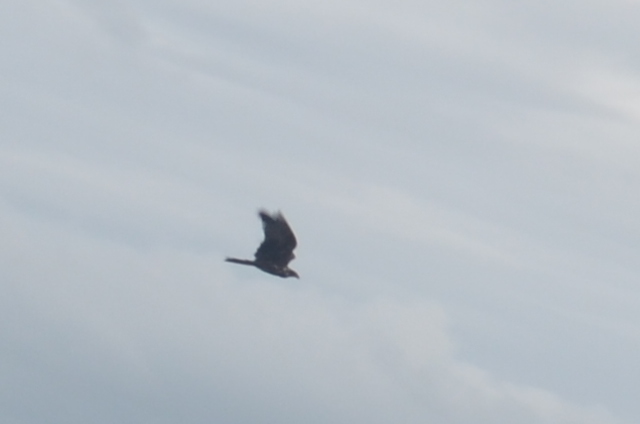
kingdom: Animalia
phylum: Chordata
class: Aves
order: Accipitriformes
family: Accipitridae
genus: Milvus
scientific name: Milvus migrans
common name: Black kite
